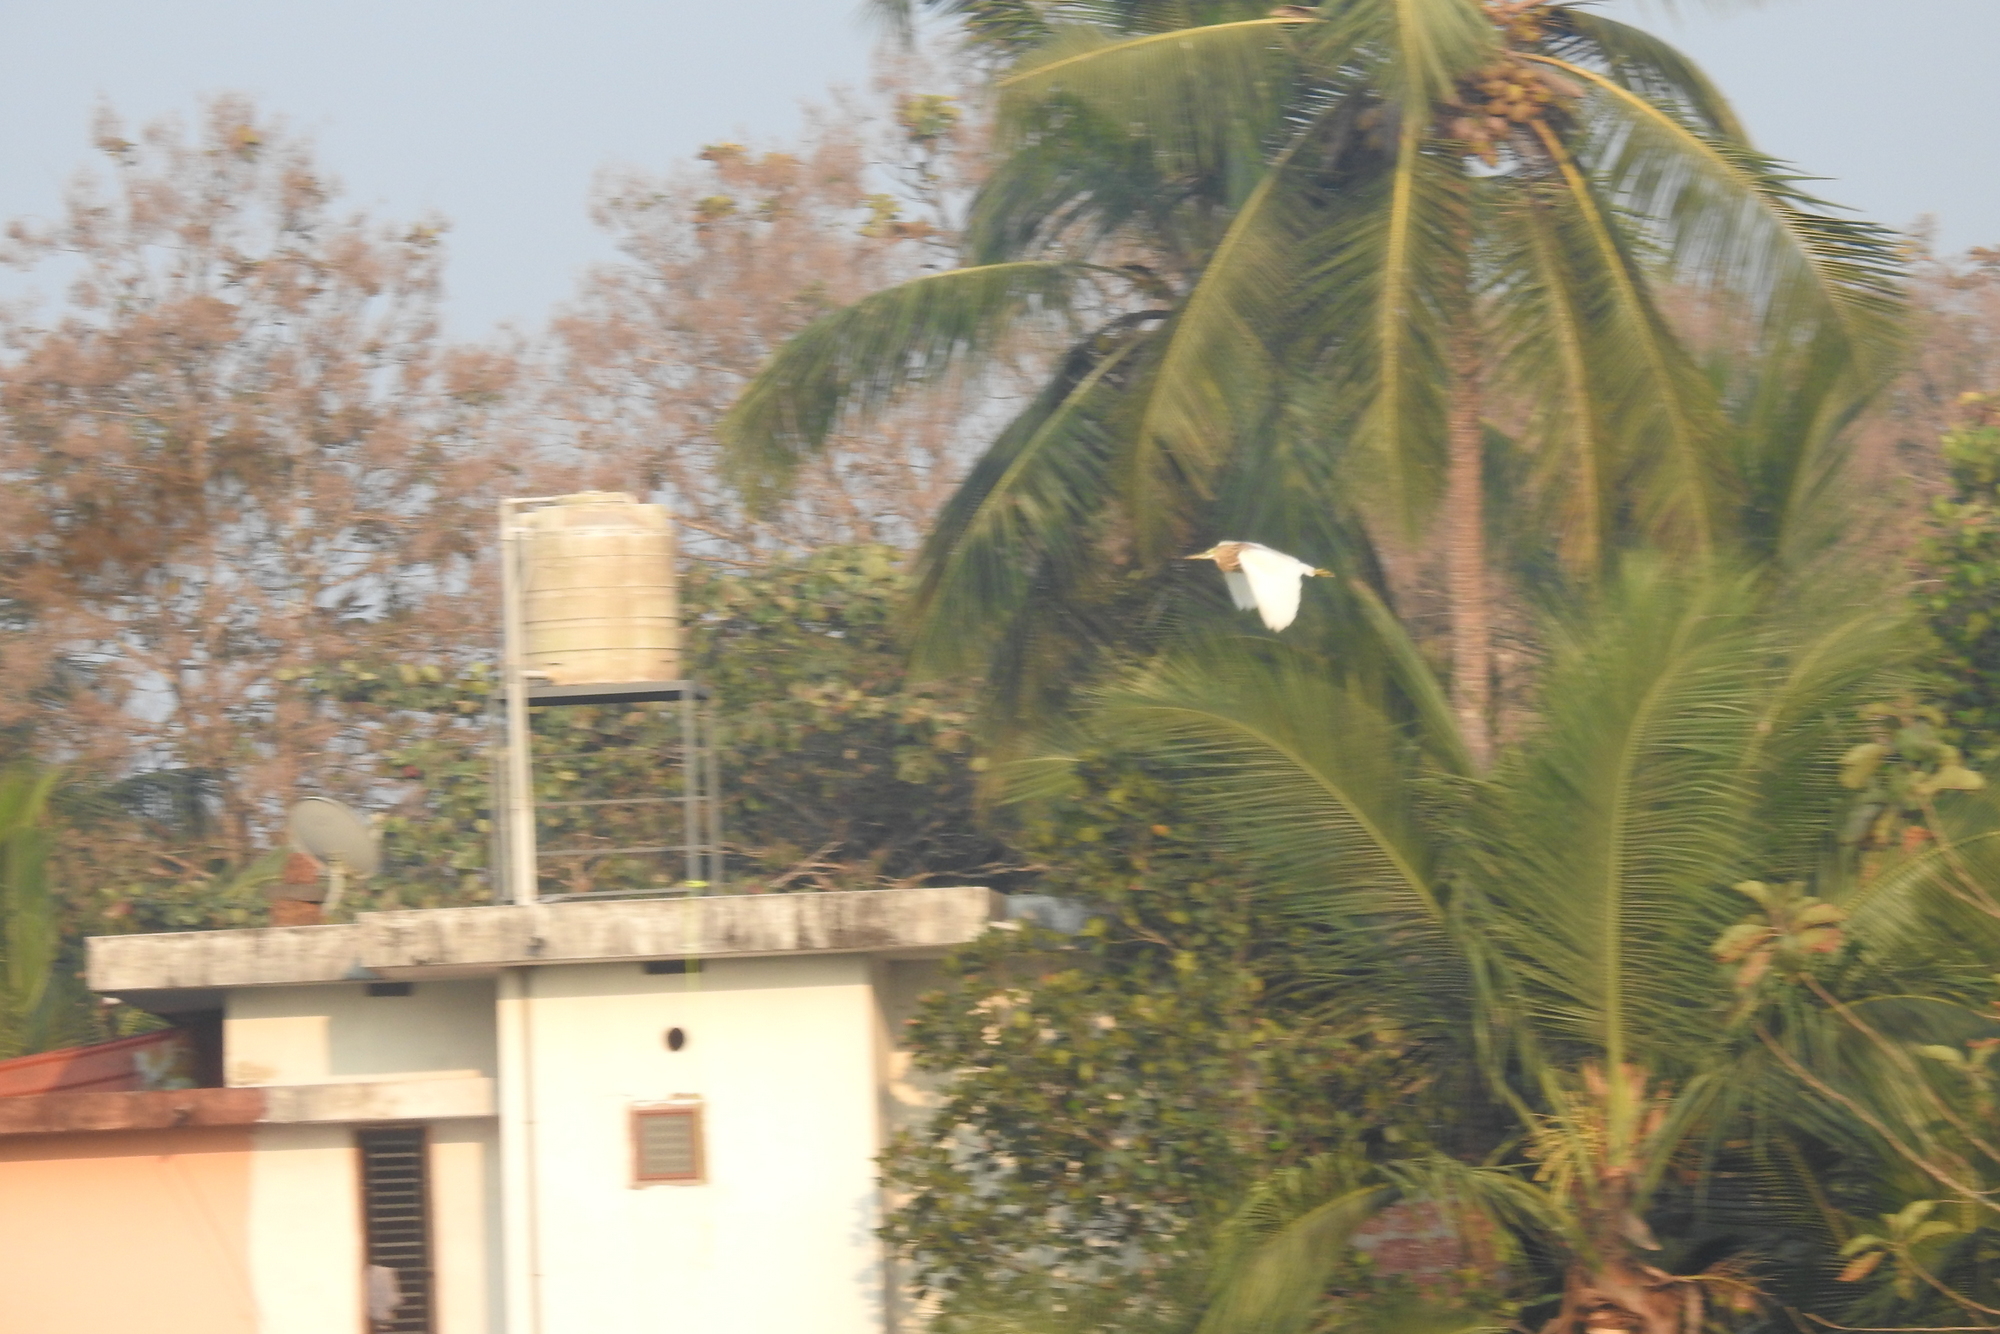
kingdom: Animalia
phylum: Chordata
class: Aves
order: Pelecaniformes
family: Ardeidae
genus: Ardeola
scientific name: Ardeola grayii
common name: Indian pond heron
